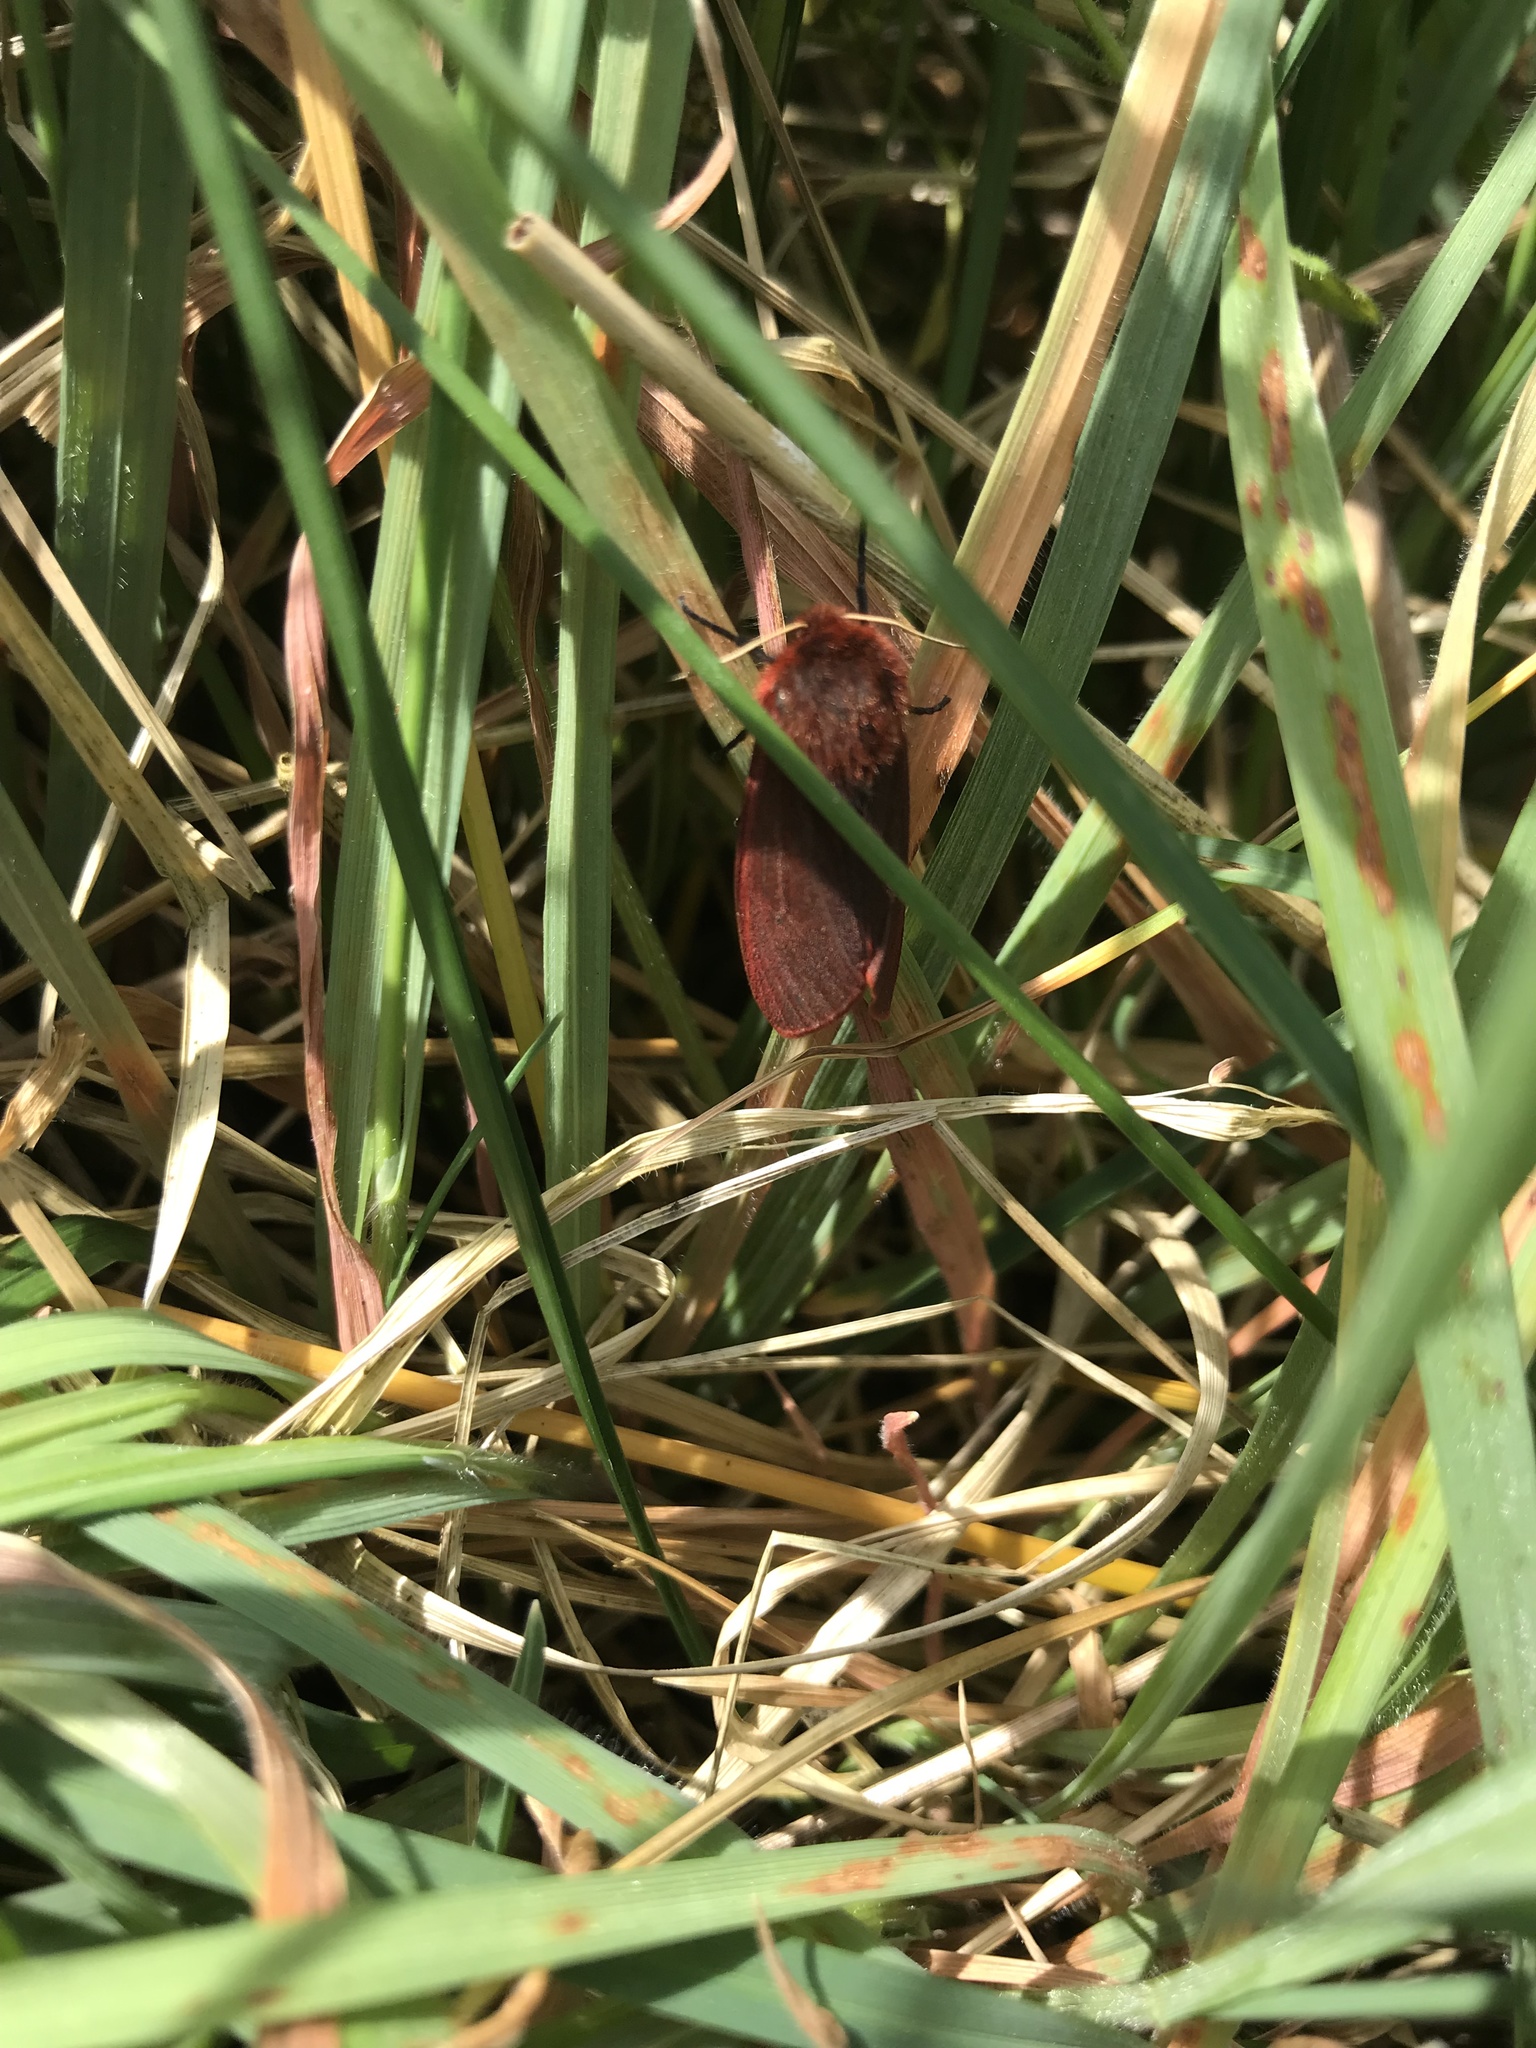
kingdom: Animalia
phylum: Arthropoda
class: Insecta
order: Lepidoptera
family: Erebidae
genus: Phragmatobia
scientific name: Phragmatobia fuliginosa
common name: Ruby tiger
